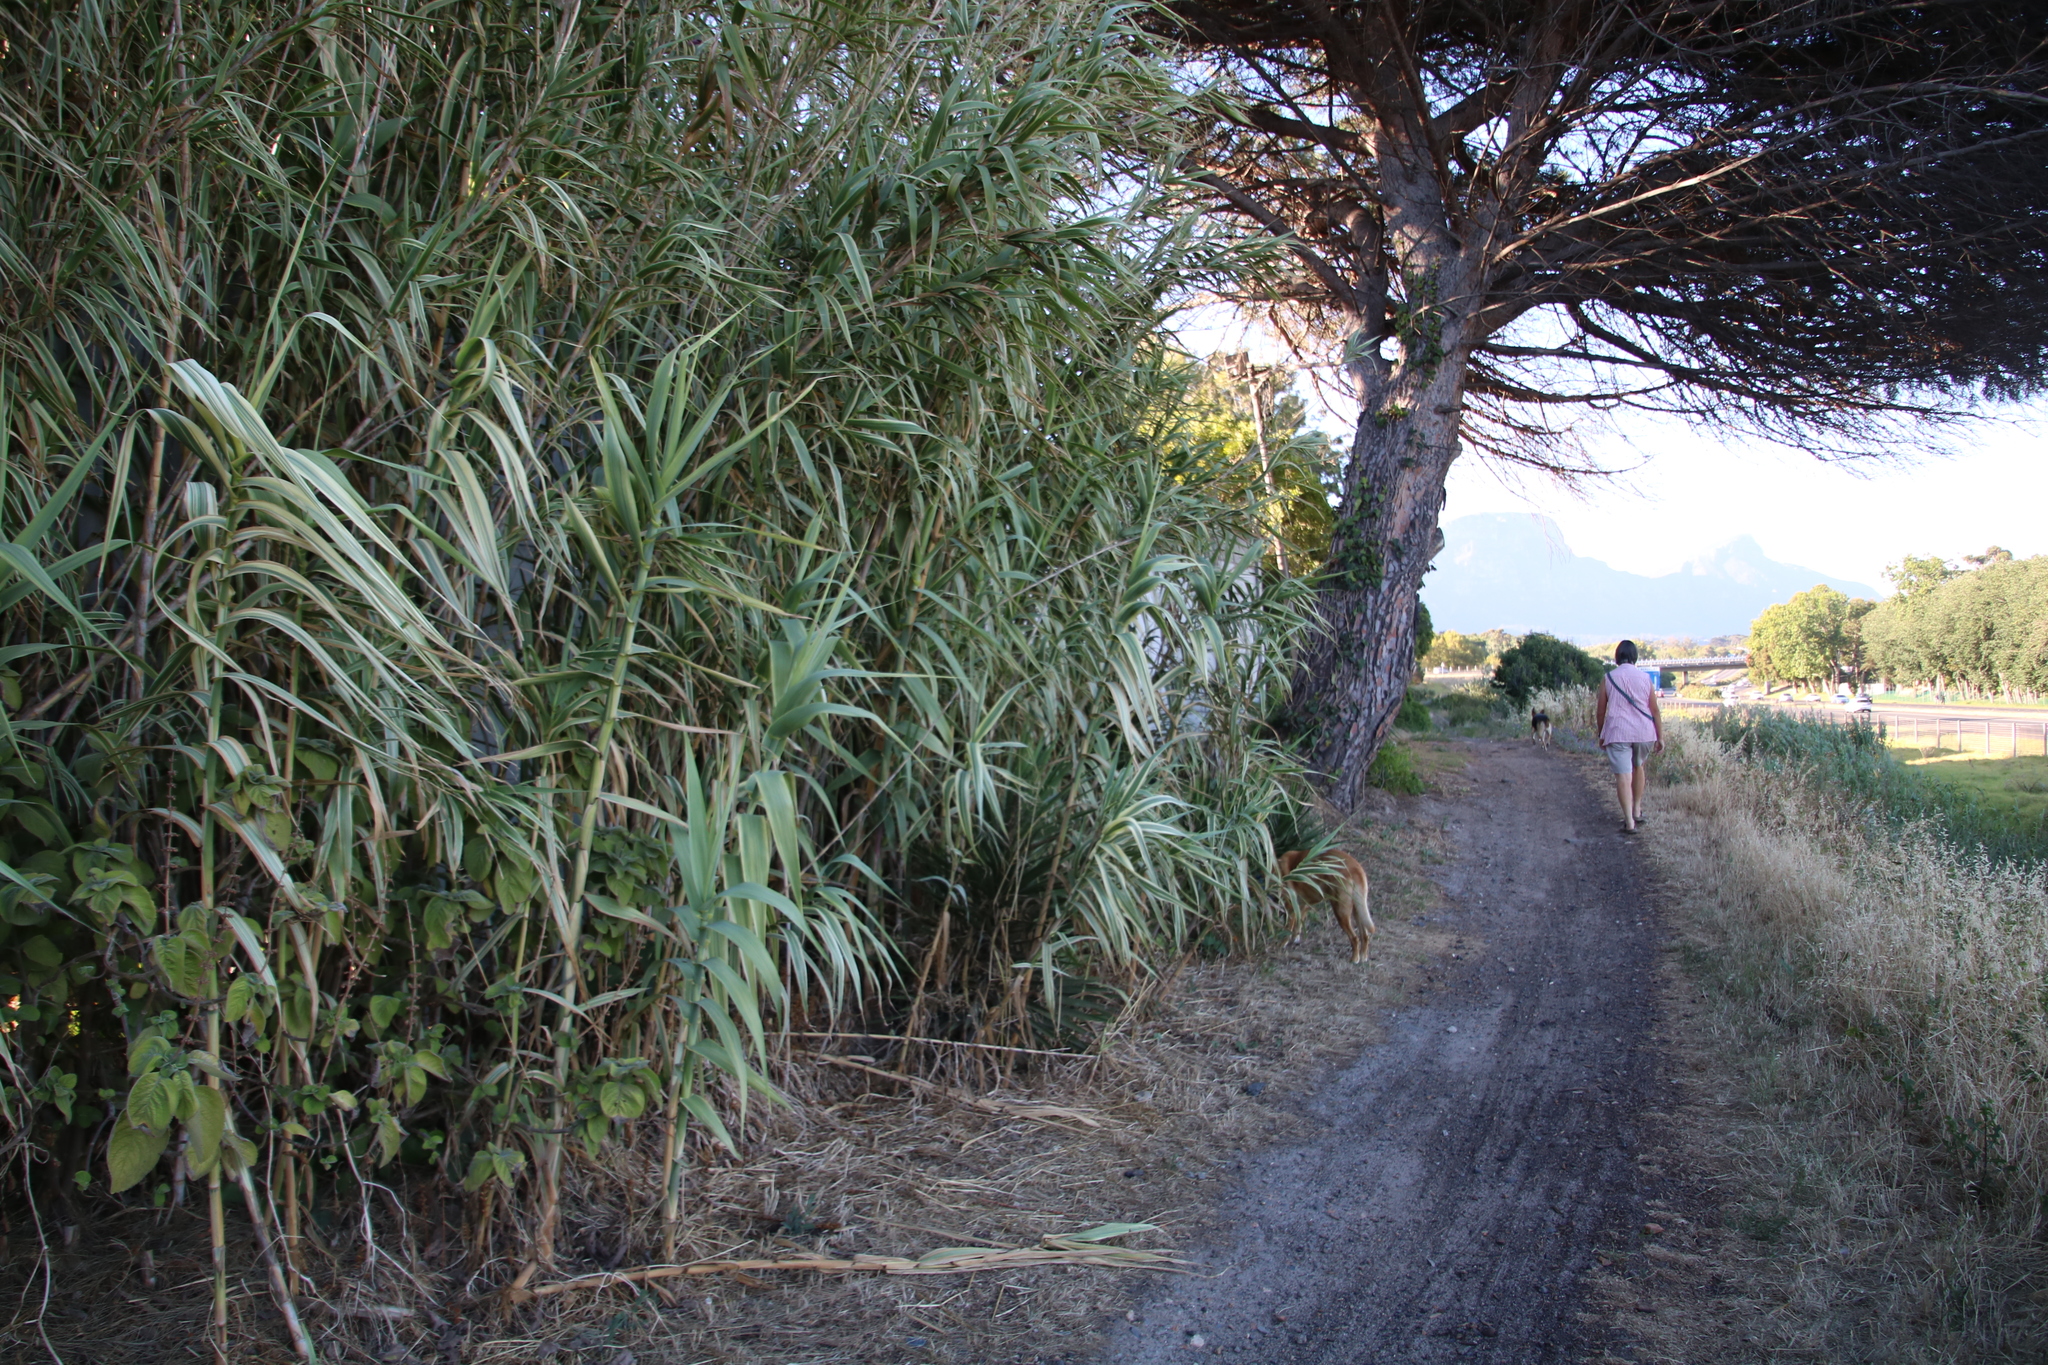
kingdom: Plantae
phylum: Tracheophyta
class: Liliopsida
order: Poales
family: Poaceae
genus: Arundo
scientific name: Arundo donax
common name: Giant reed
